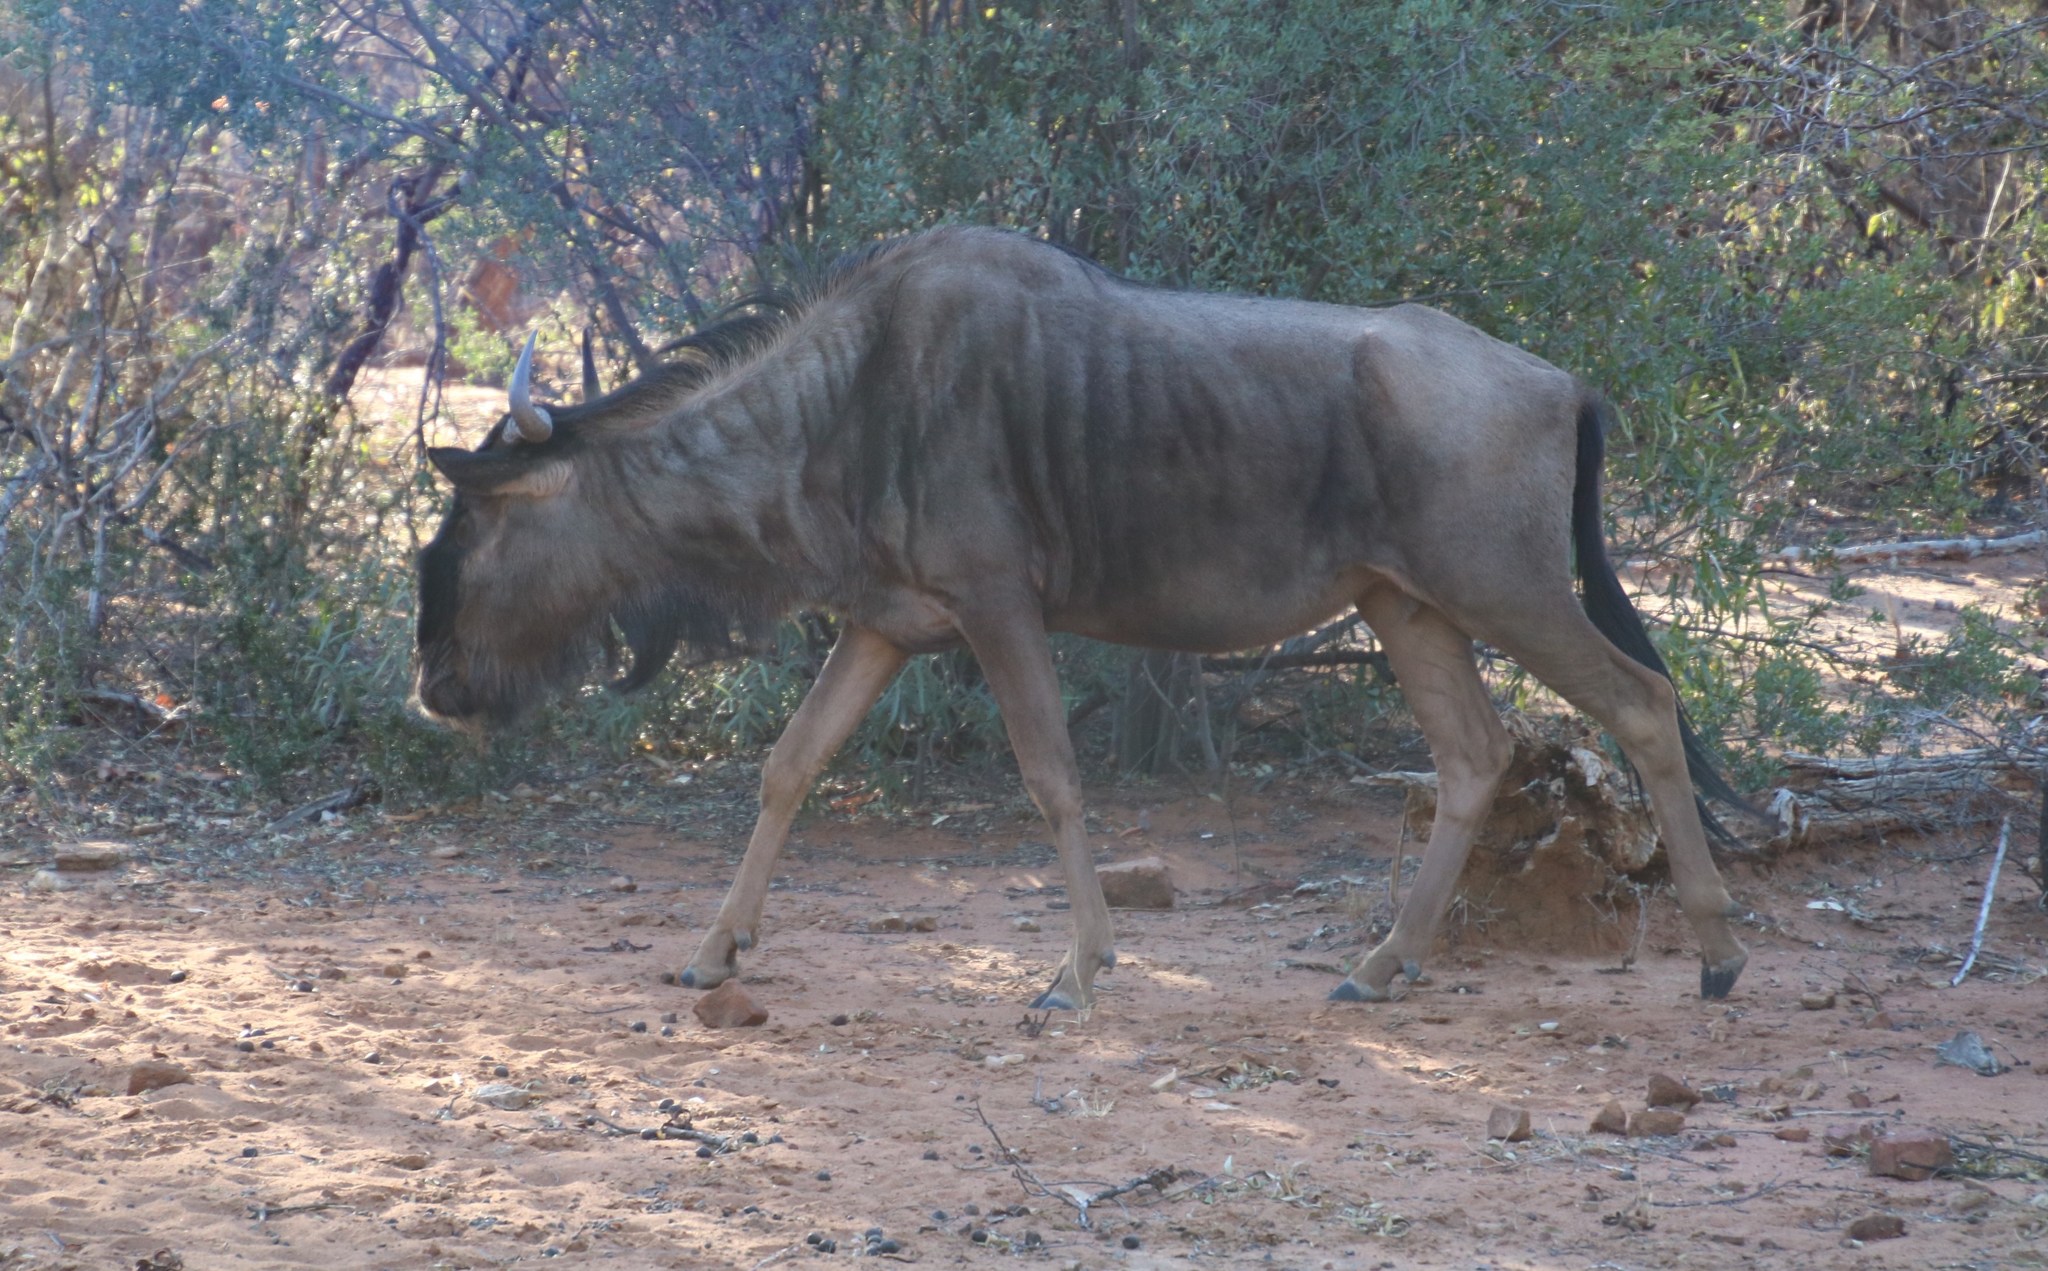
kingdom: Animalia
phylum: Chordata
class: Mammalia
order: Artiodactyla
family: Bovidae
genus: Connochaetes
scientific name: Connochaetes taurinus
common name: Blue wildebeest
